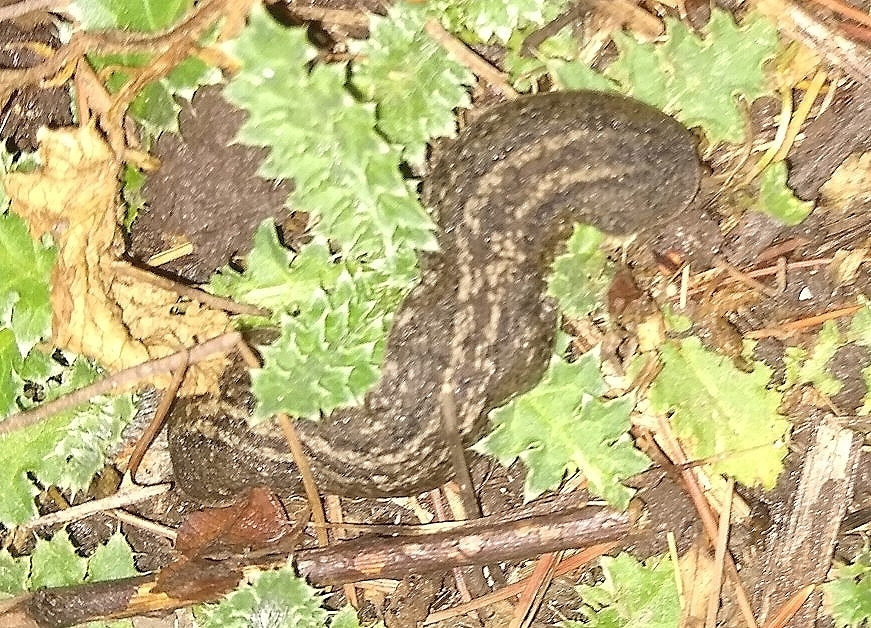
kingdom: Animalia
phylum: Mollusca
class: Gastropoda
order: Systellommatophora
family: Veronicellidae
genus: Phyllocaulis
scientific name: Phyllocaulis soleiformis
